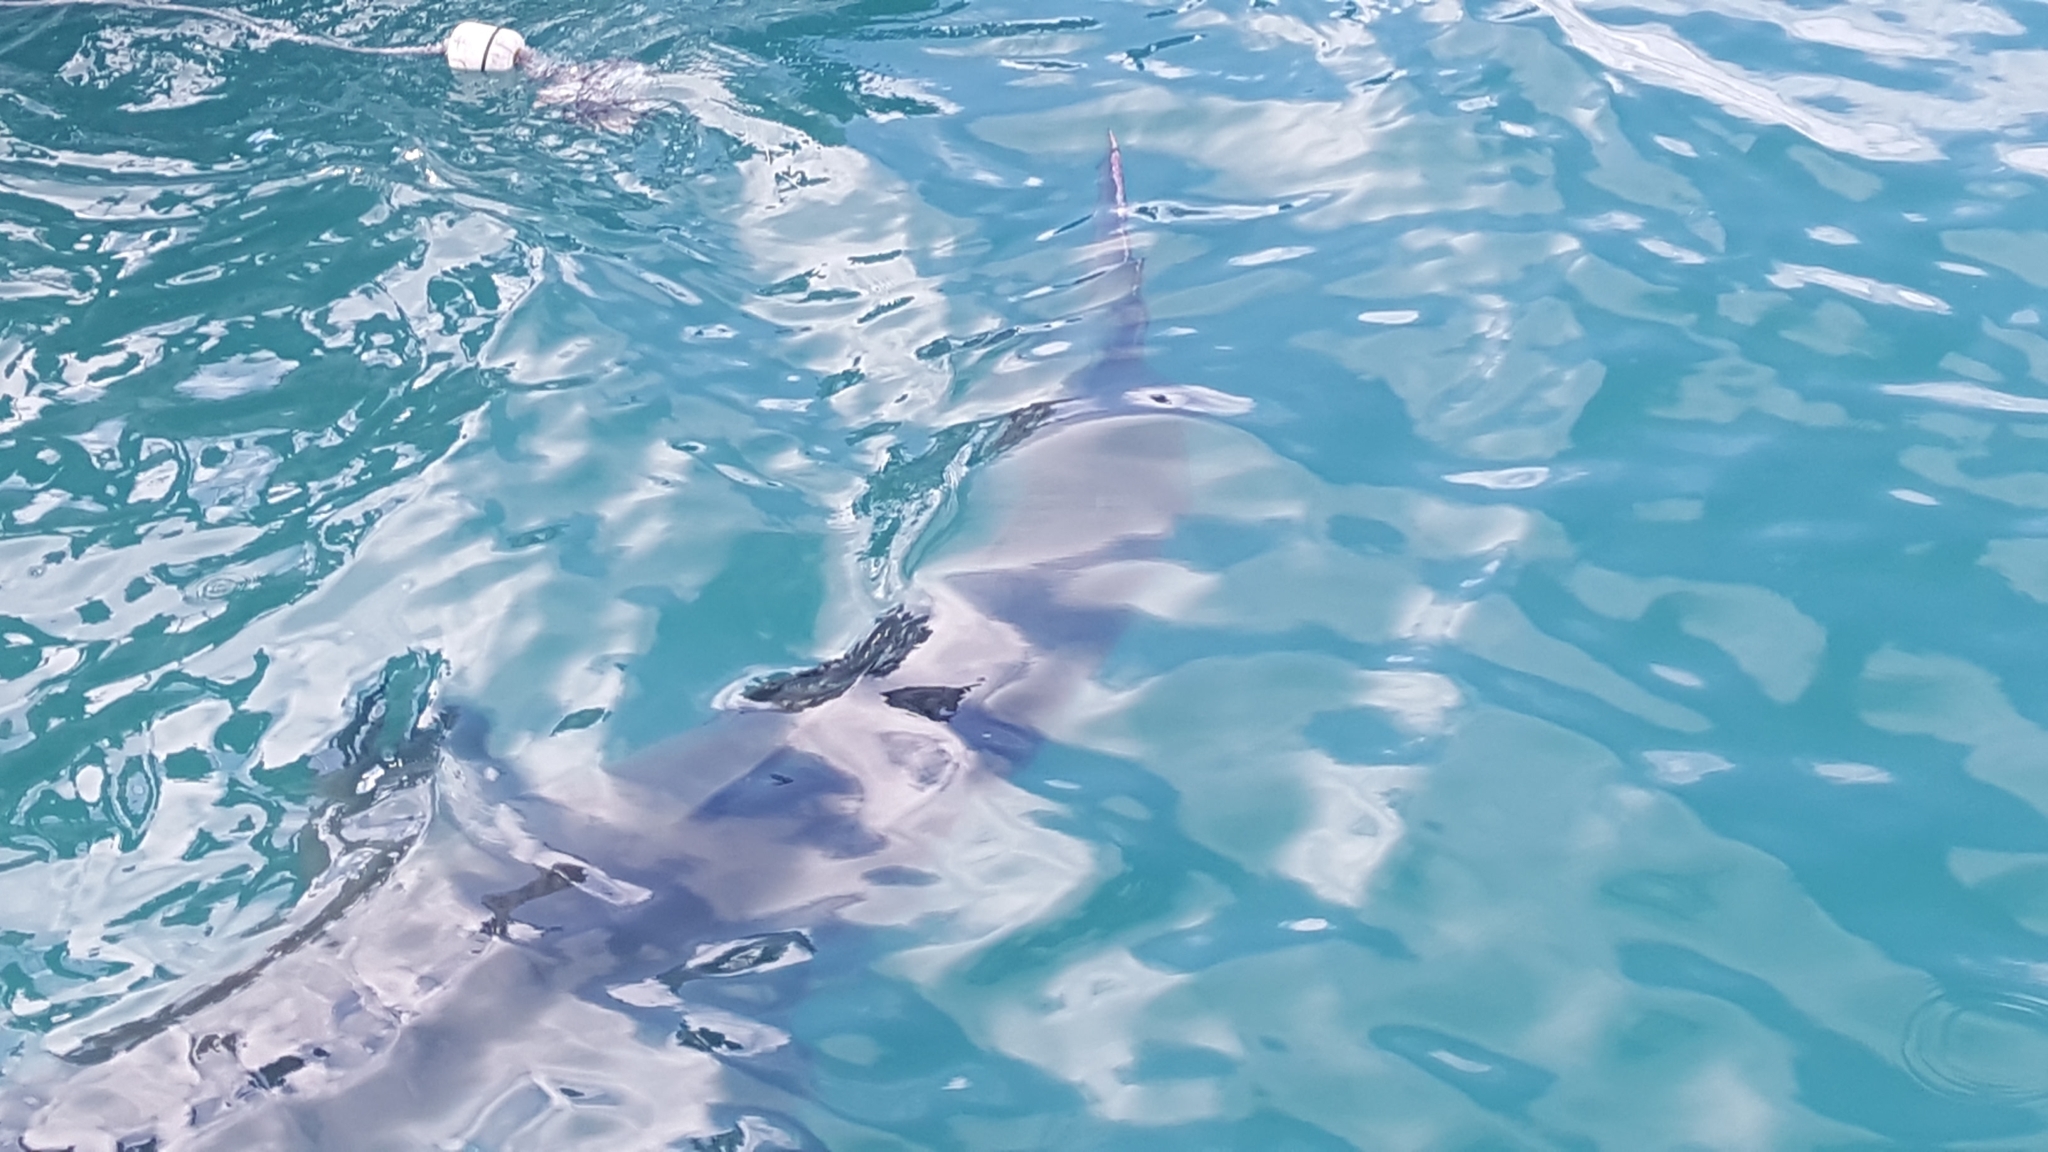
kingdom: Animalia
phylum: Chordata
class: Elasmobranchii
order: Lamniformes
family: Lamnidae
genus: Carcharodon
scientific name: Carcharodon carcharias
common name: Great white shark
